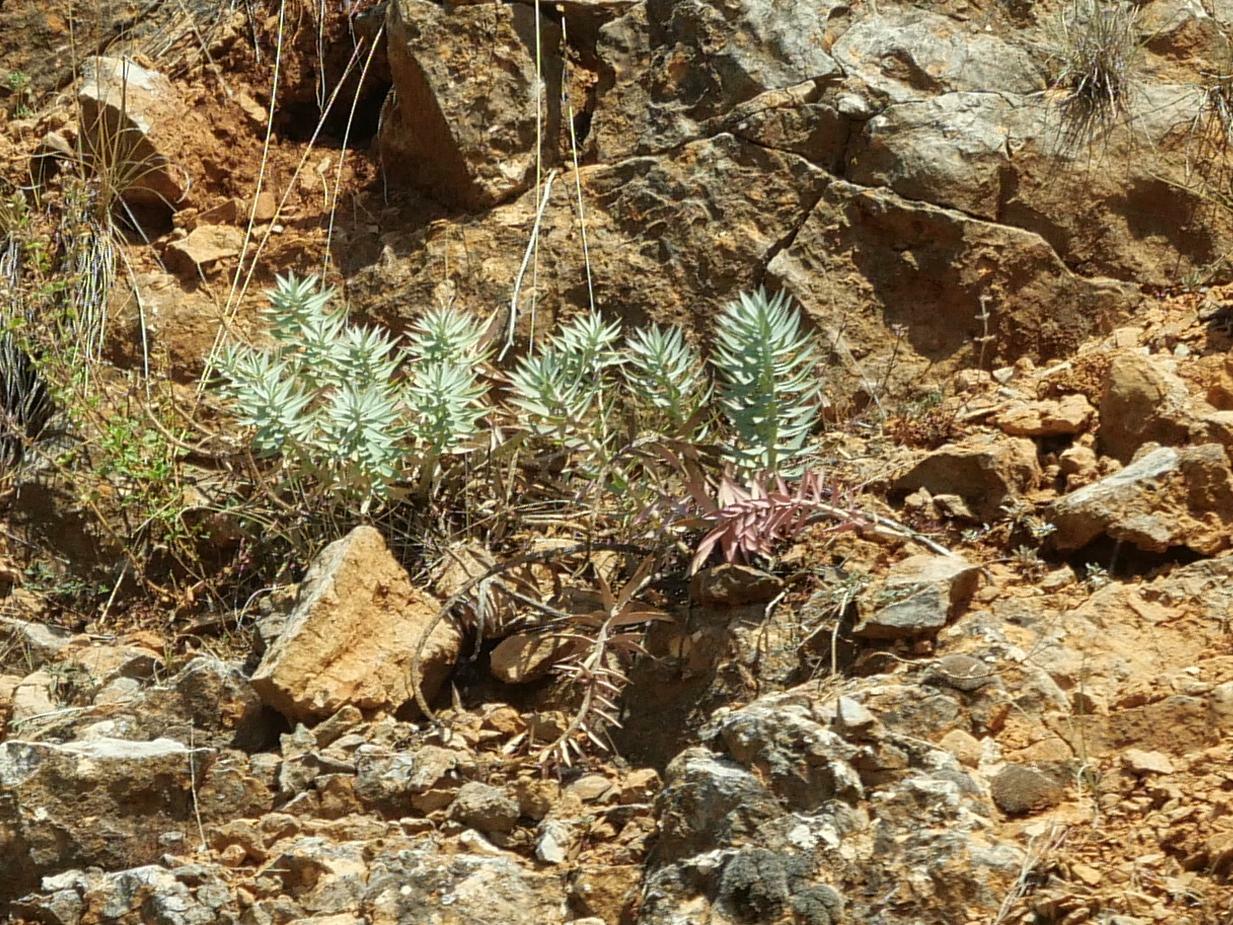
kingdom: Plantae
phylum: Tracheophyta
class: Magnoliopsida
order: Malpighiales
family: Euphorbiaceae
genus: Euphorbia
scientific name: Euphorbia rigida
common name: Upright myrtle spurge
